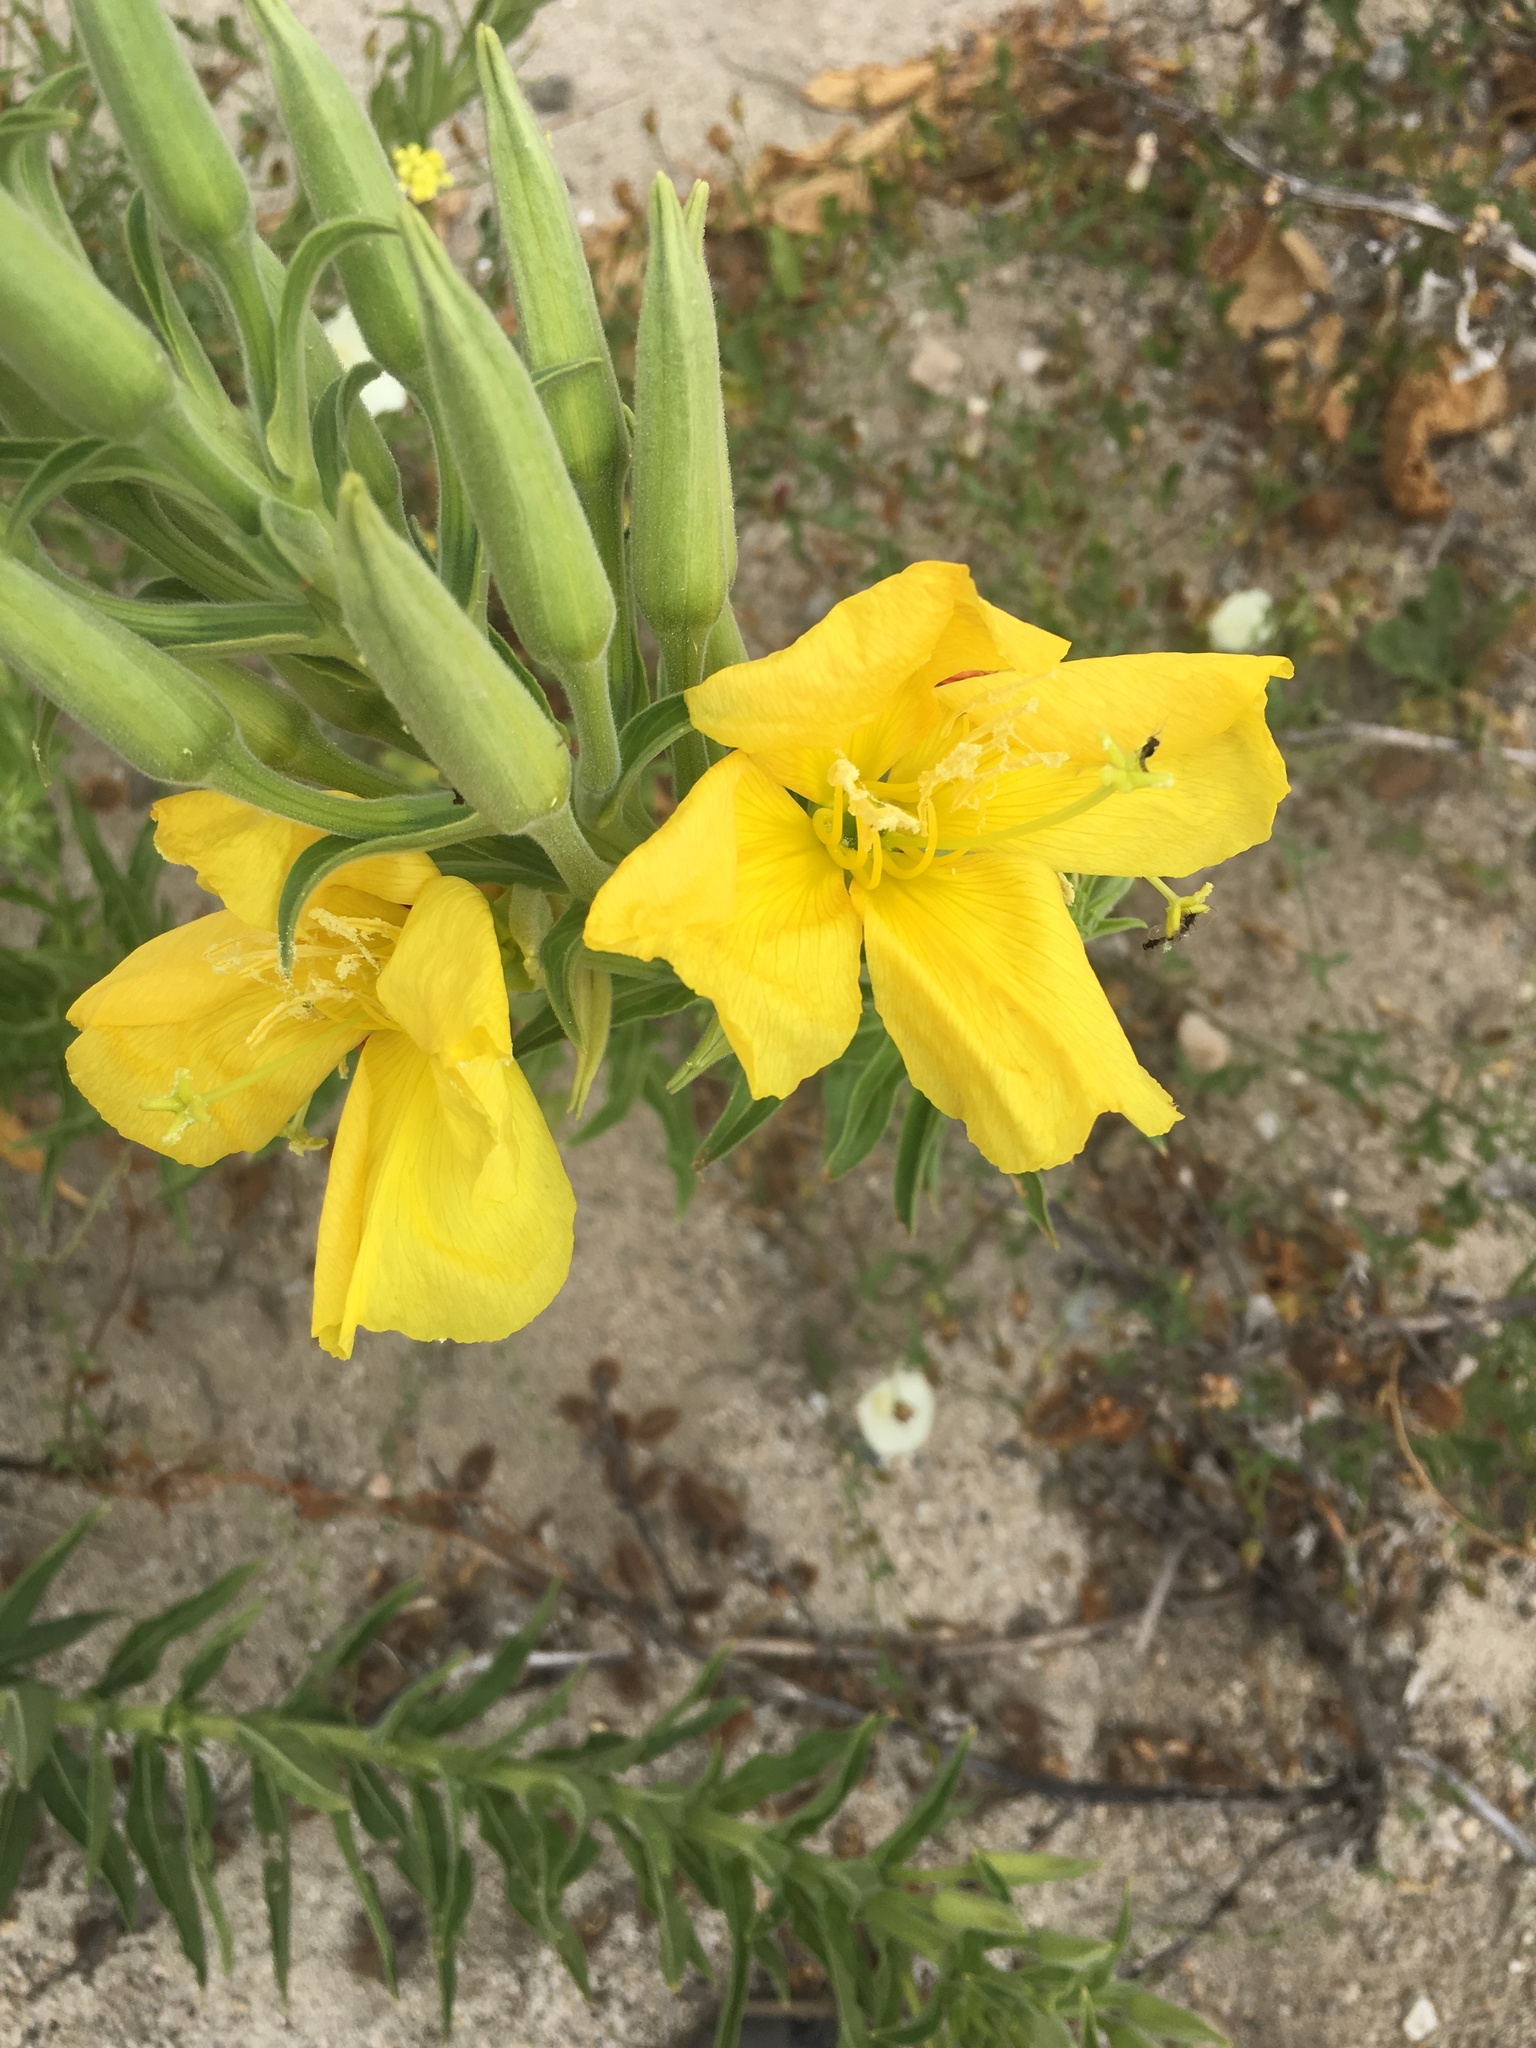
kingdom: Plantae
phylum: Tracheophyta
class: Magnoliopsida
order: Myrtales
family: Onagraceae
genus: Oenothera
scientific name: Oenothera elata
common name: Hooker's evening-primrose
